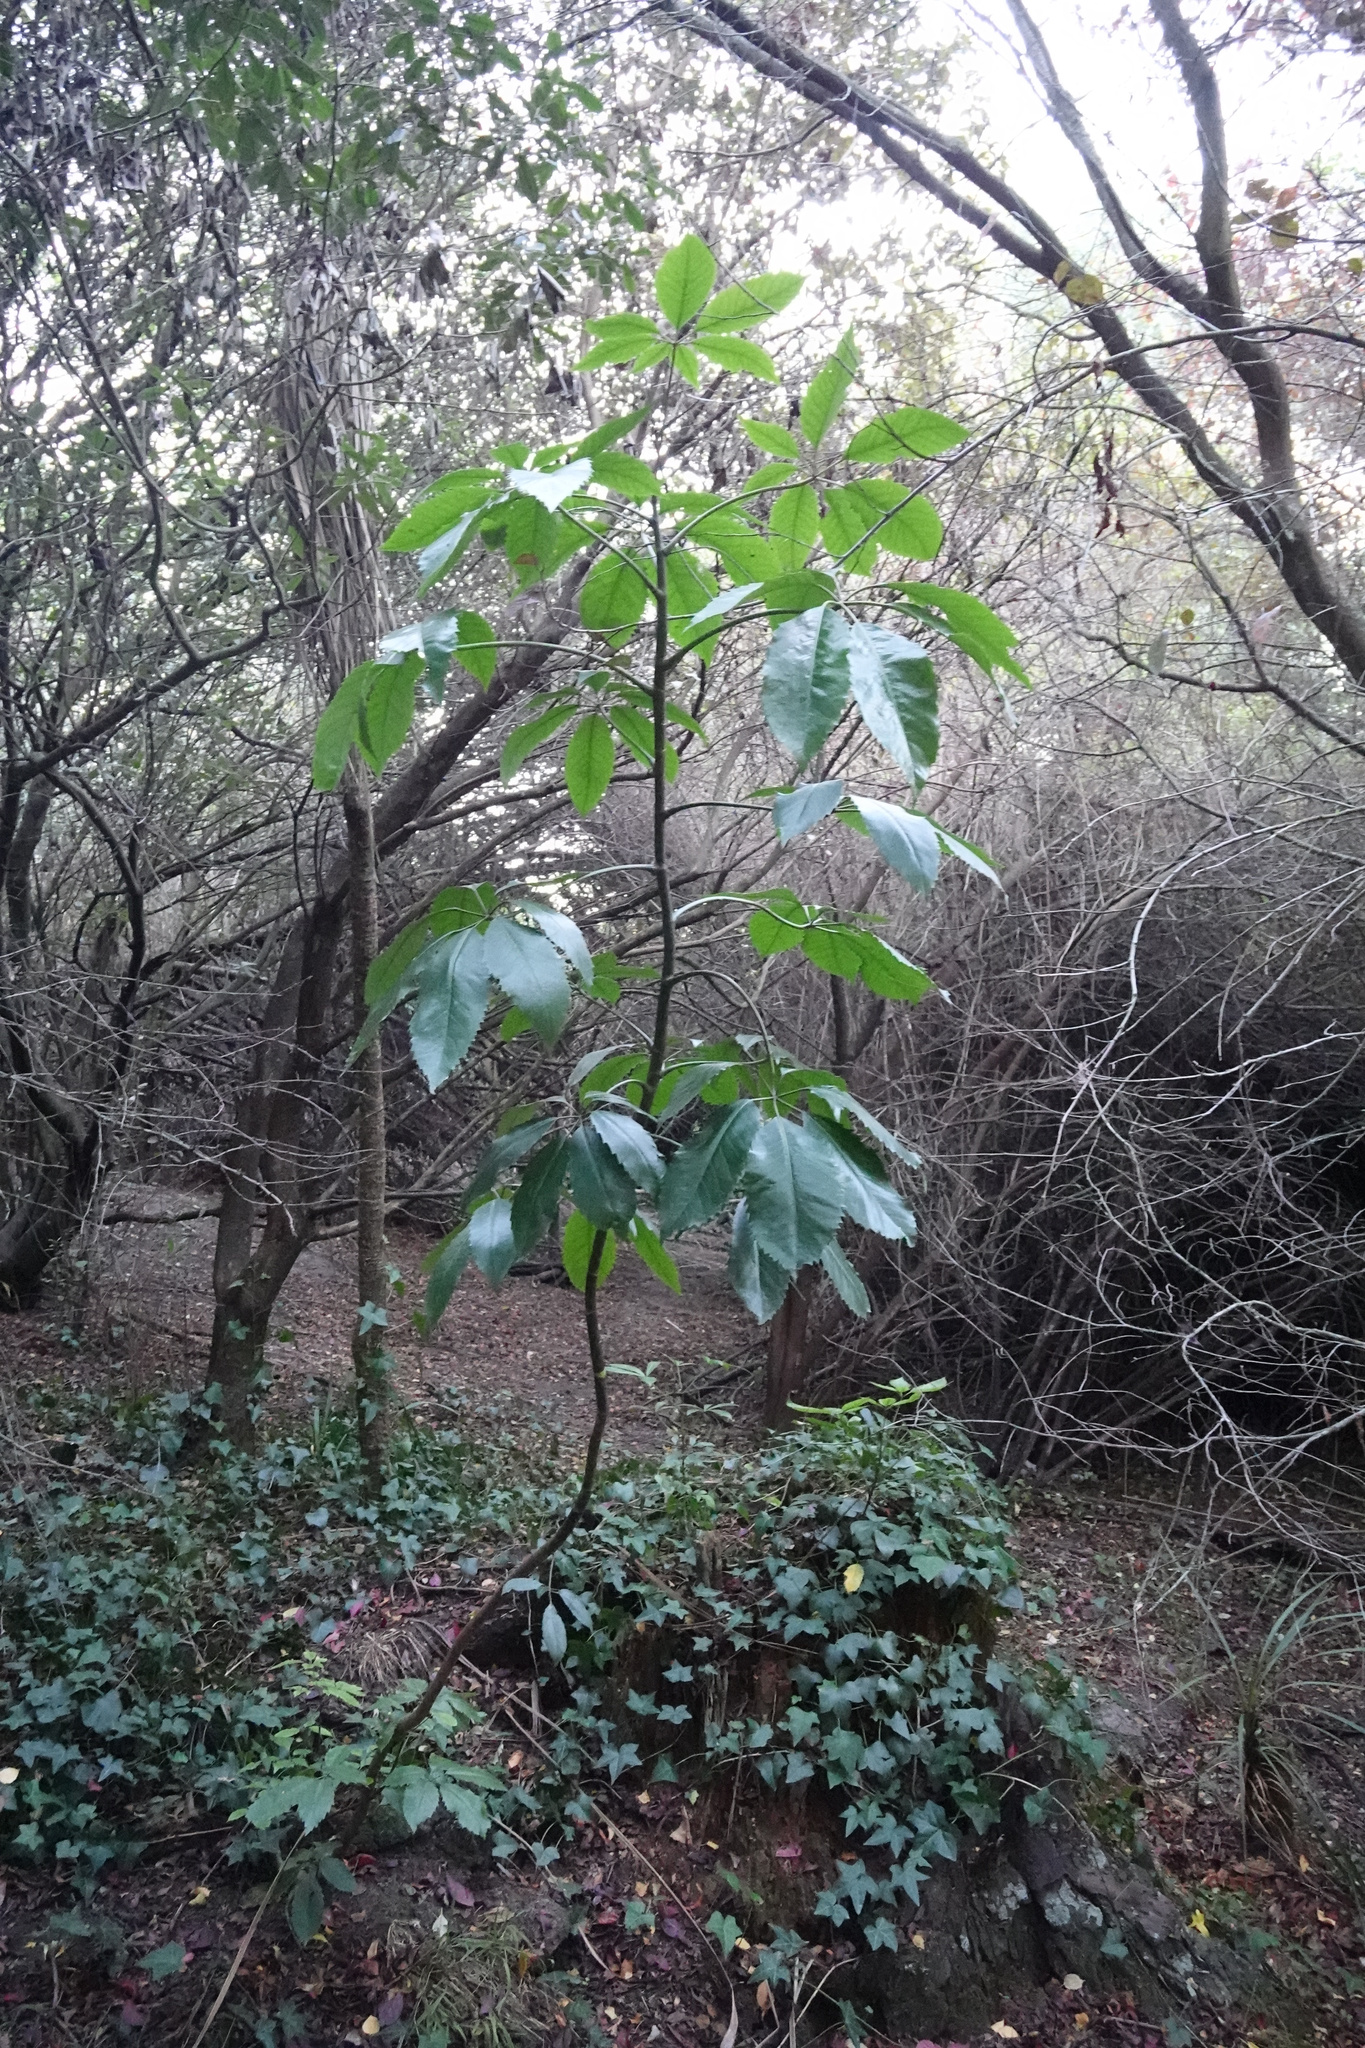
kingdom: Plantae
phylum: Tracheophyta
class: Magnoliopsida
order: Apiales
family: Araliaceae
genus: Neopanax
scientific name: Neopanax arboreus
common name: Five-fingers
